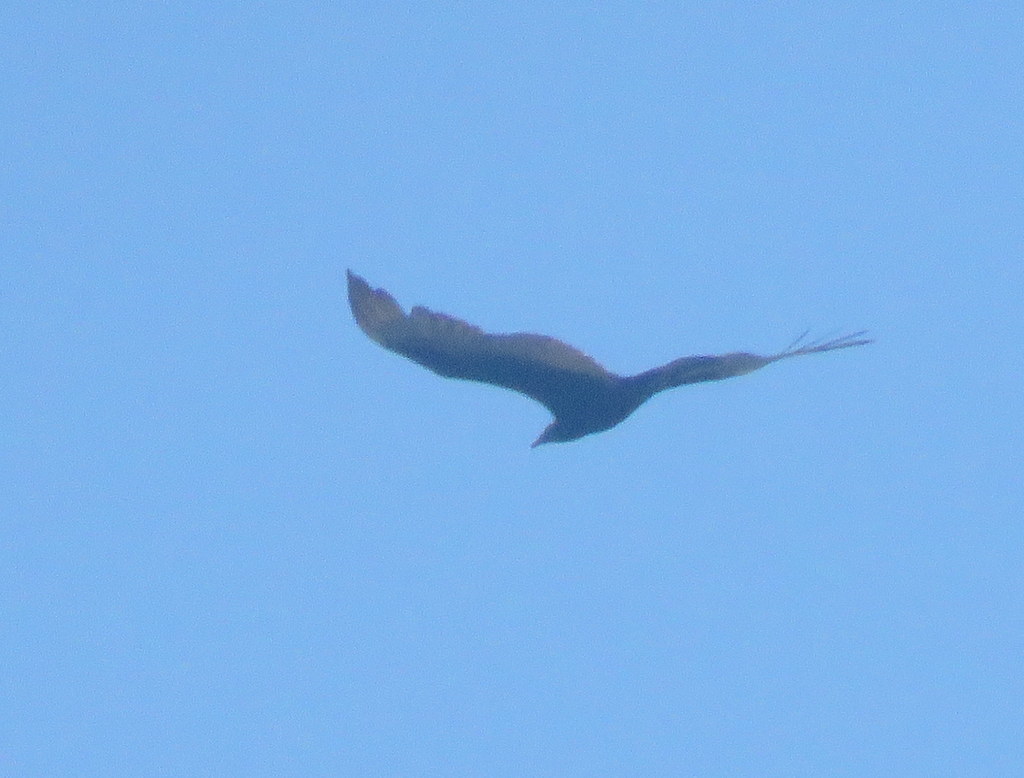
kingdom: Animalia
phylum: Chordata
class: Aves
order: Accipitriformes
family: Cathartidae
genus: Cathartes
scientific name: Cathartes aura
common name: Turkey vulture
